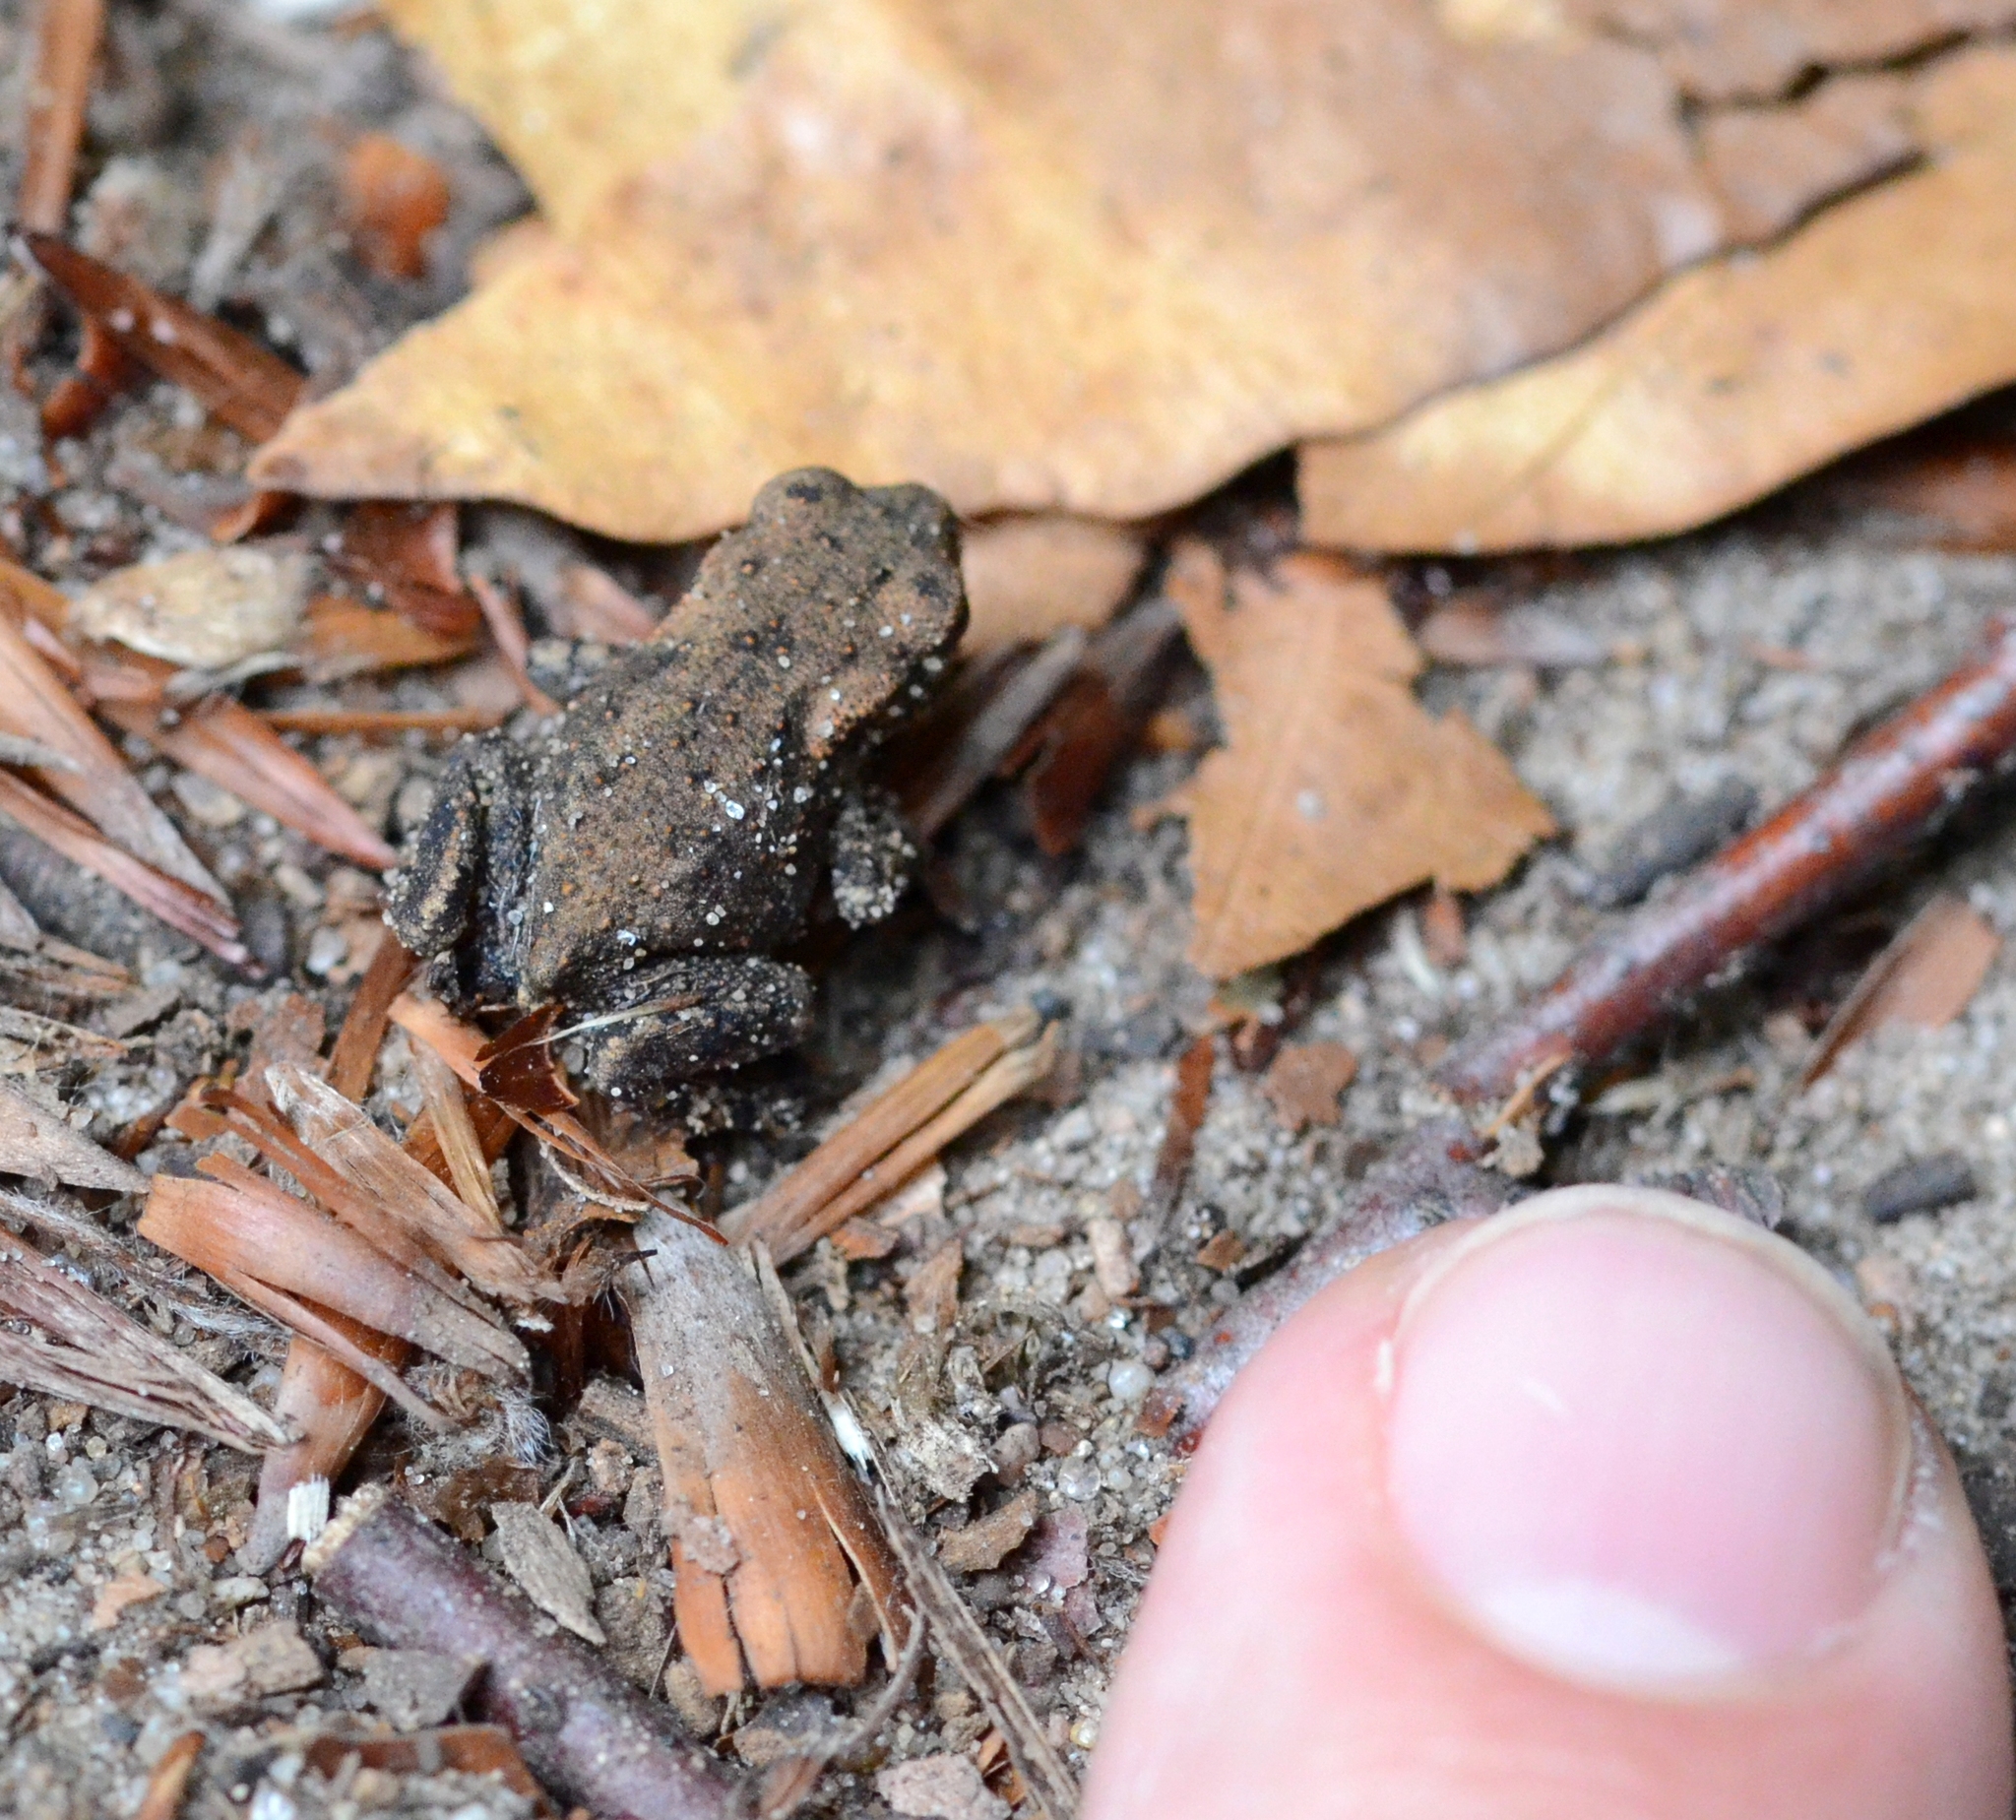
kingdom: Animalia
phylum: Chordata
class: Amphibia
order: Anura
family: Bufonidae
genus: Bufo
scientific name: Bufo bufo
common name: Common toad
